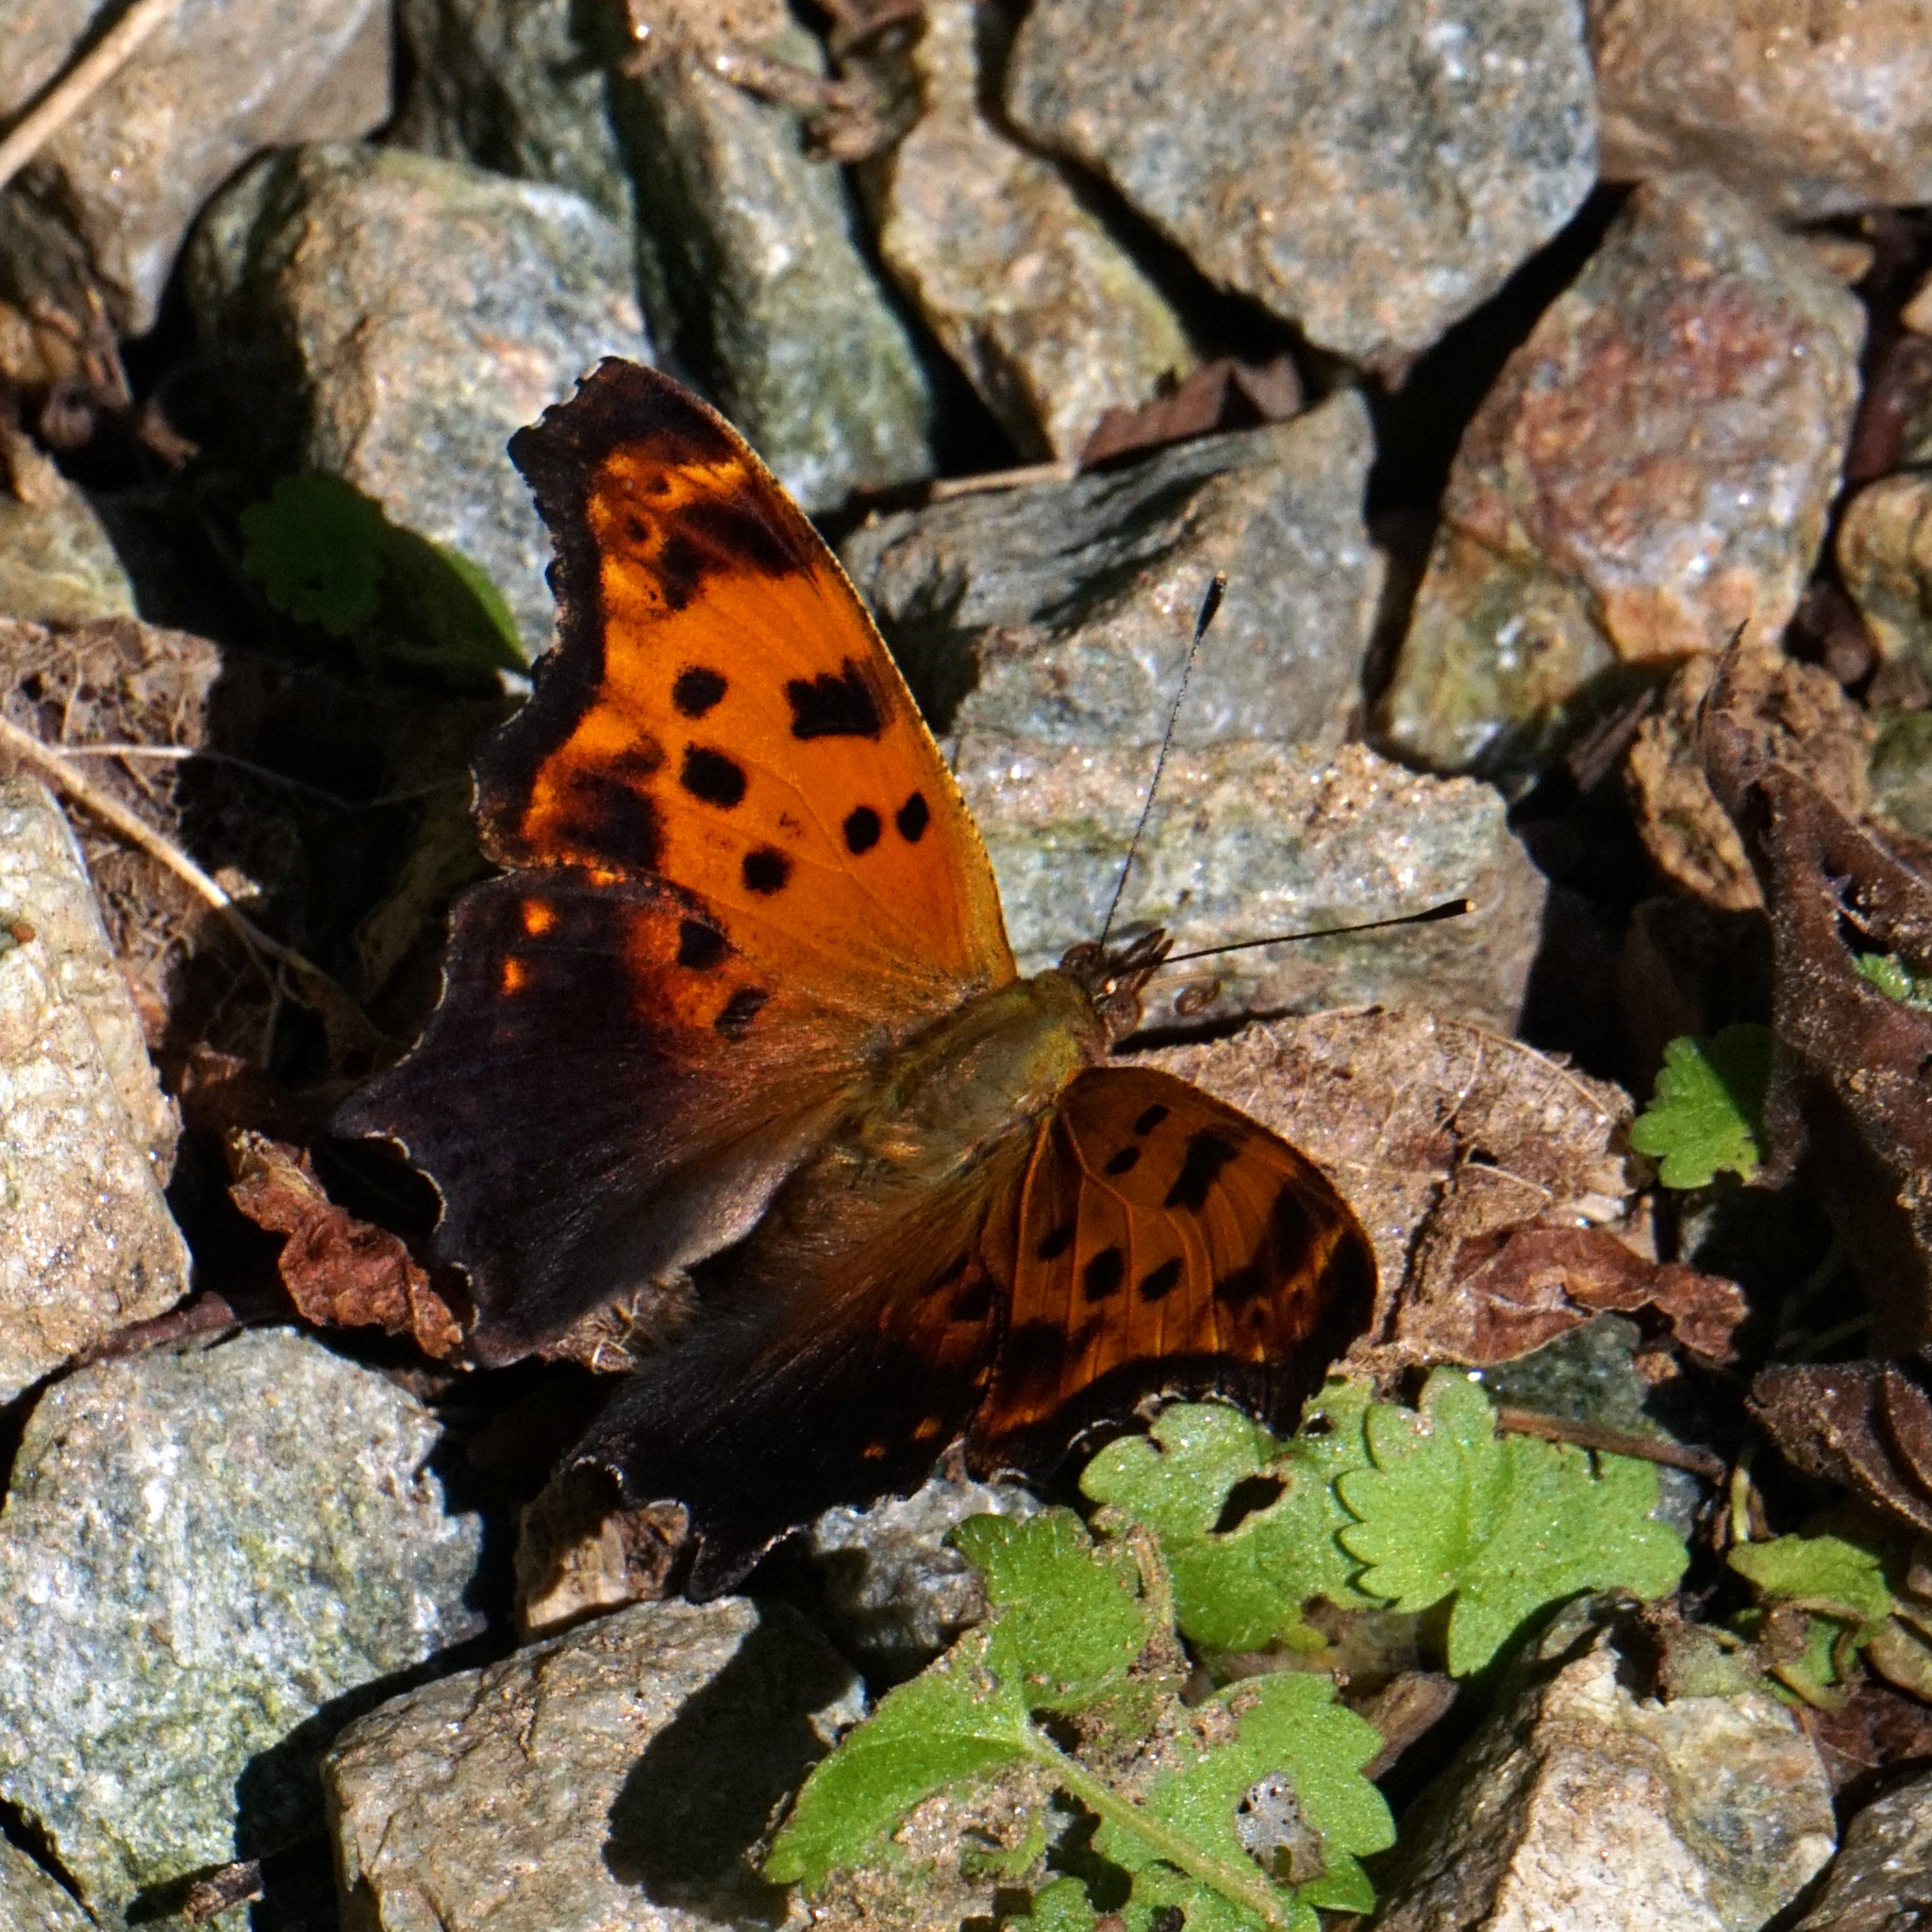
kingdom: Animalia
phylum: Arthropoda
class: Insecta
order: Lepidoptera
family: Nymphalidae
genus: Polygonia
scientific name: Polygonia comma
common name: Eastern comma
